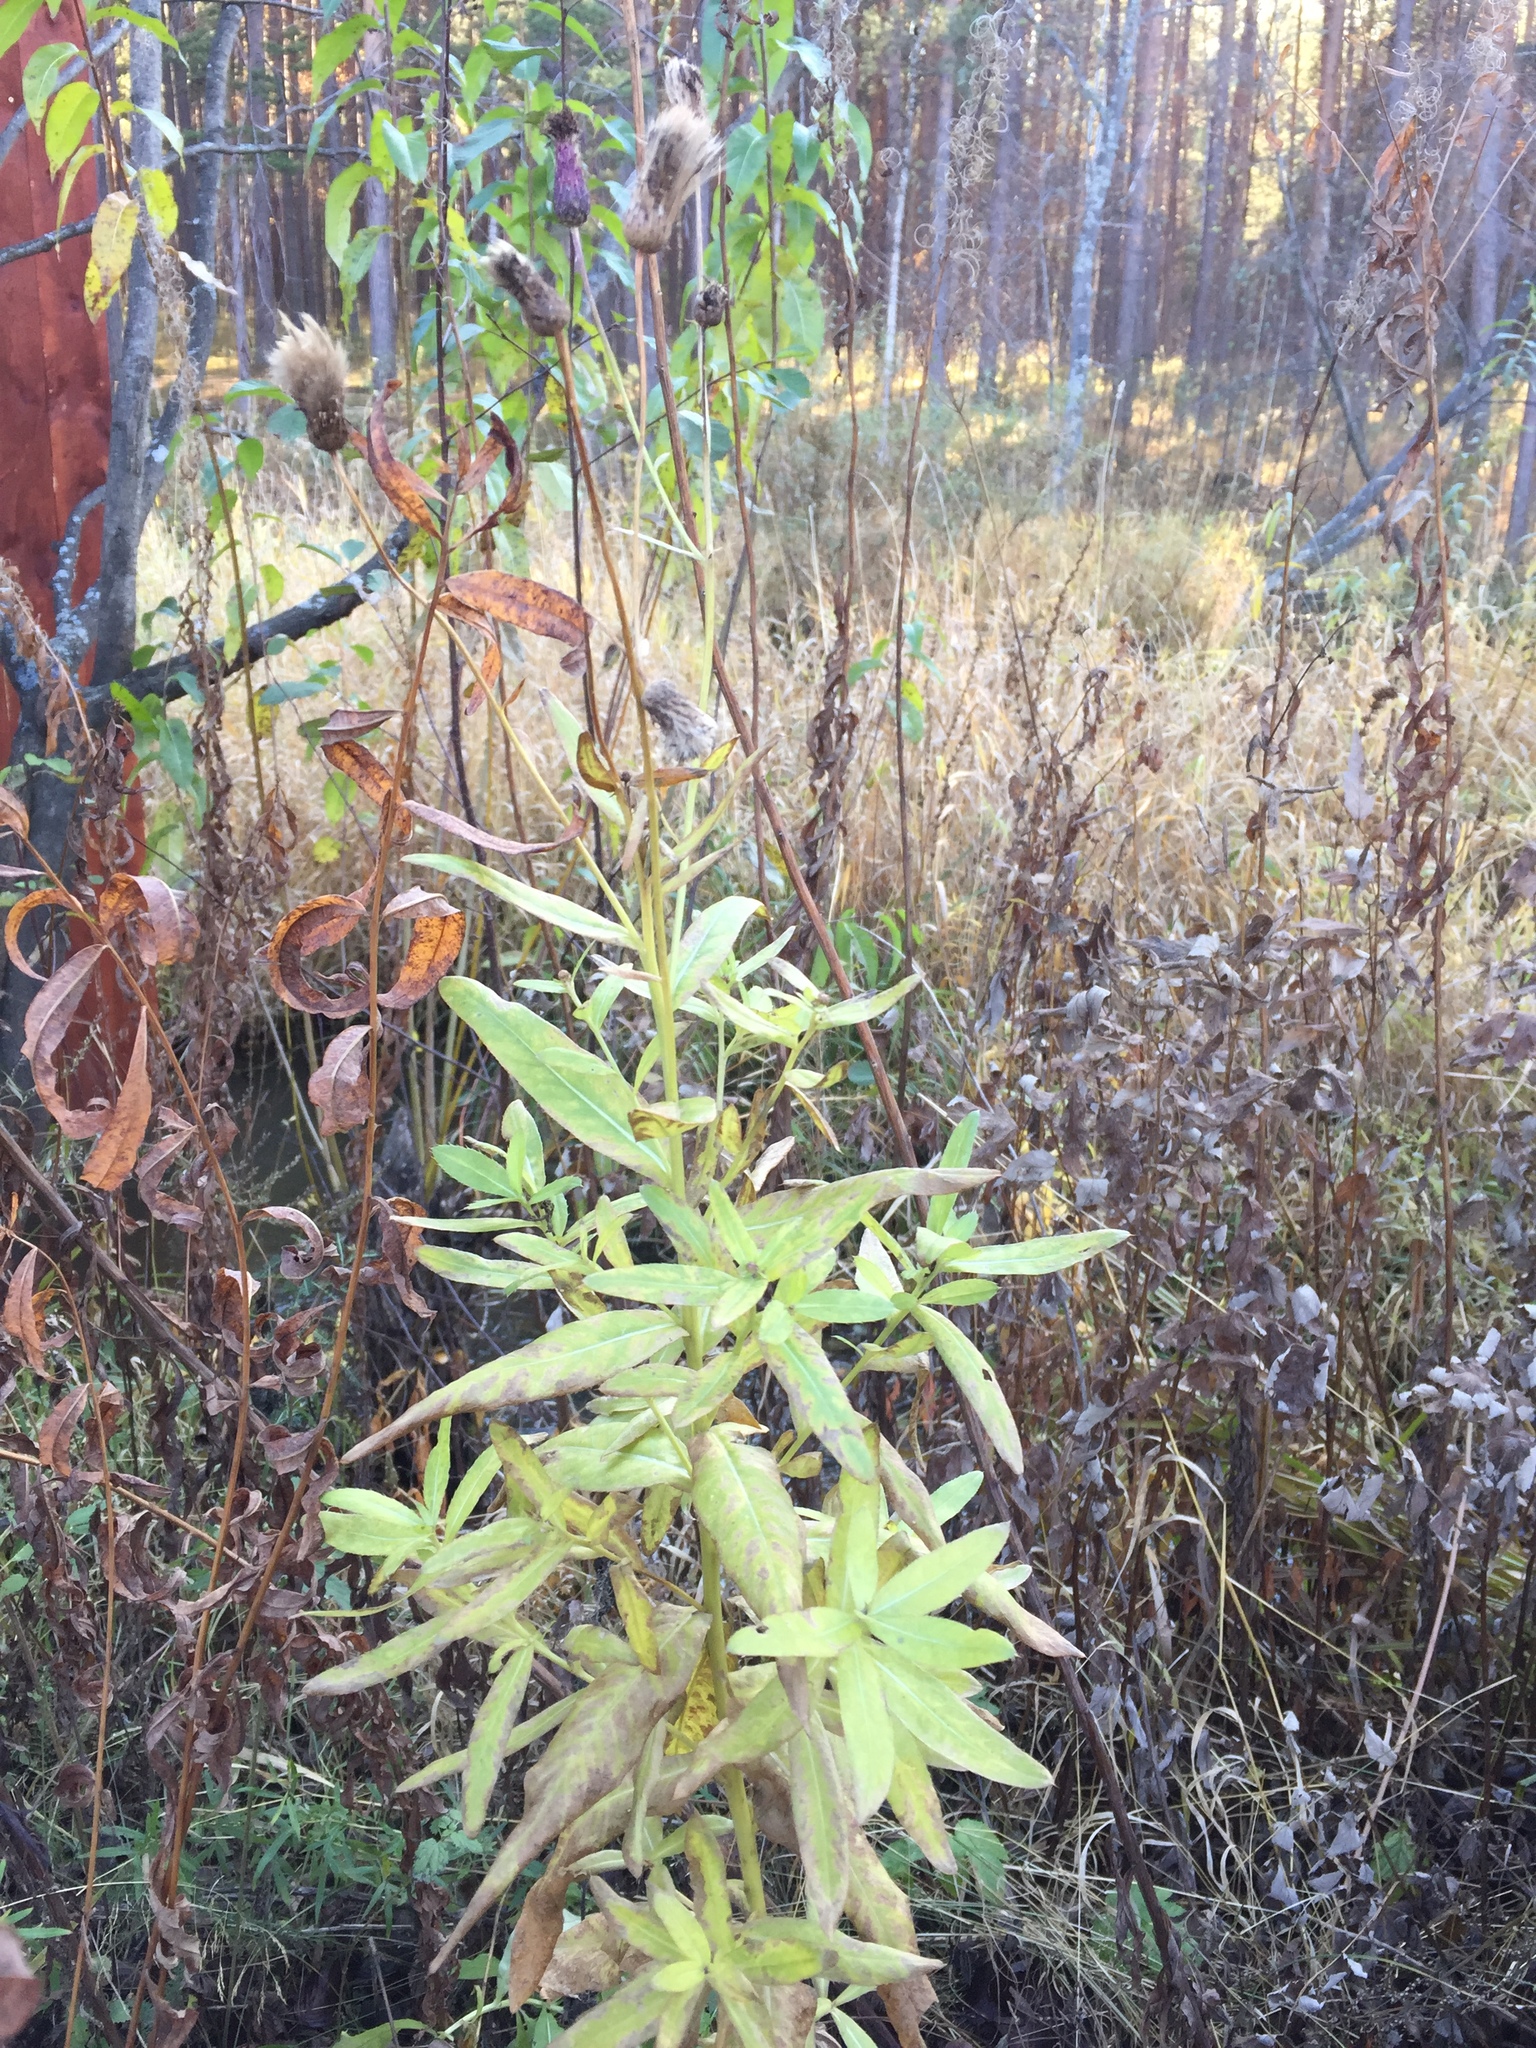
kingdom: Plantae
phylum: Tracheophyta
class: Magnoliopsida
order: Asterales
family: Asteraceae
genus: Cirsium
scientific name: Cirsium arvense
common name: Creeping thistle
